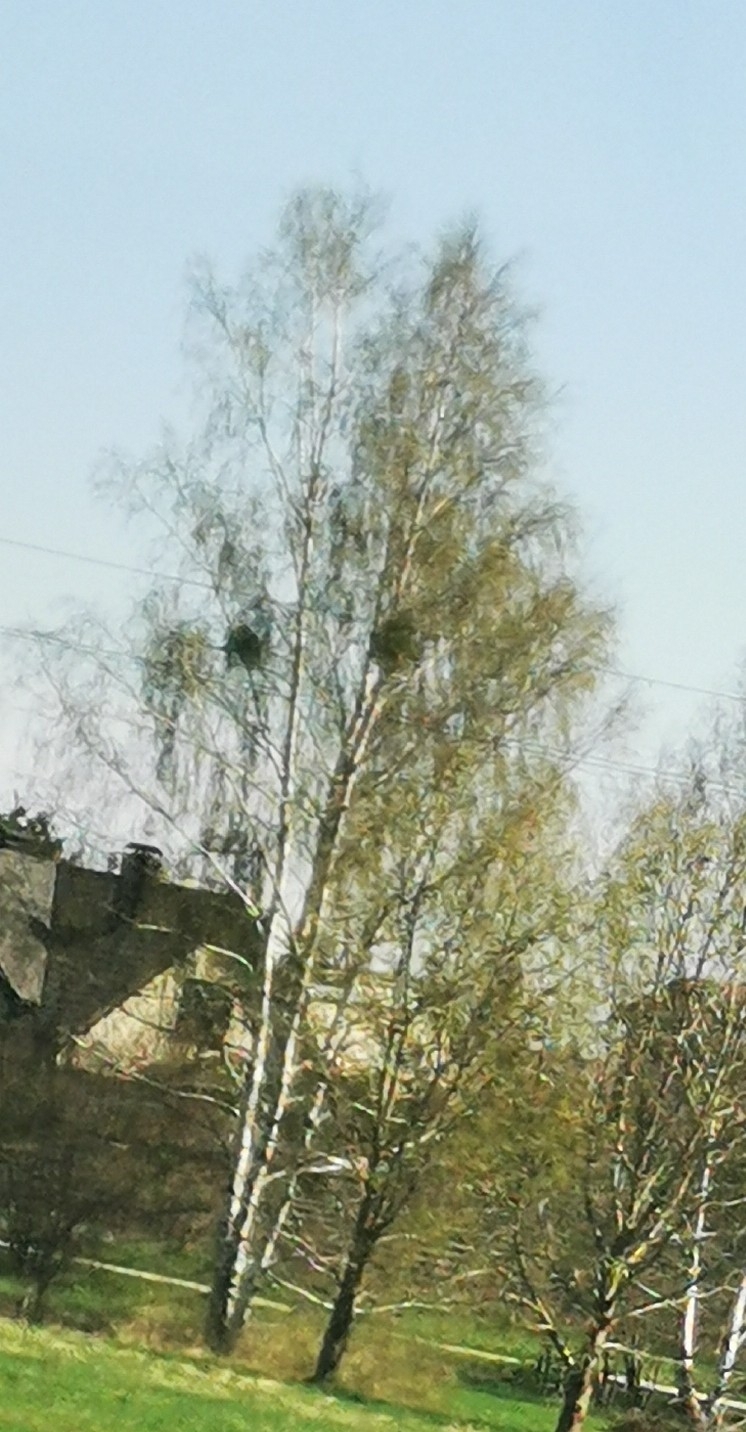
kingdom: Plantae
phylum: Tracheophyta
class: Magnoliopsida
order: Santalales
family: Viscaceae
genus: Viscum
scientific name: Viscum album
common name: Mistletoe
